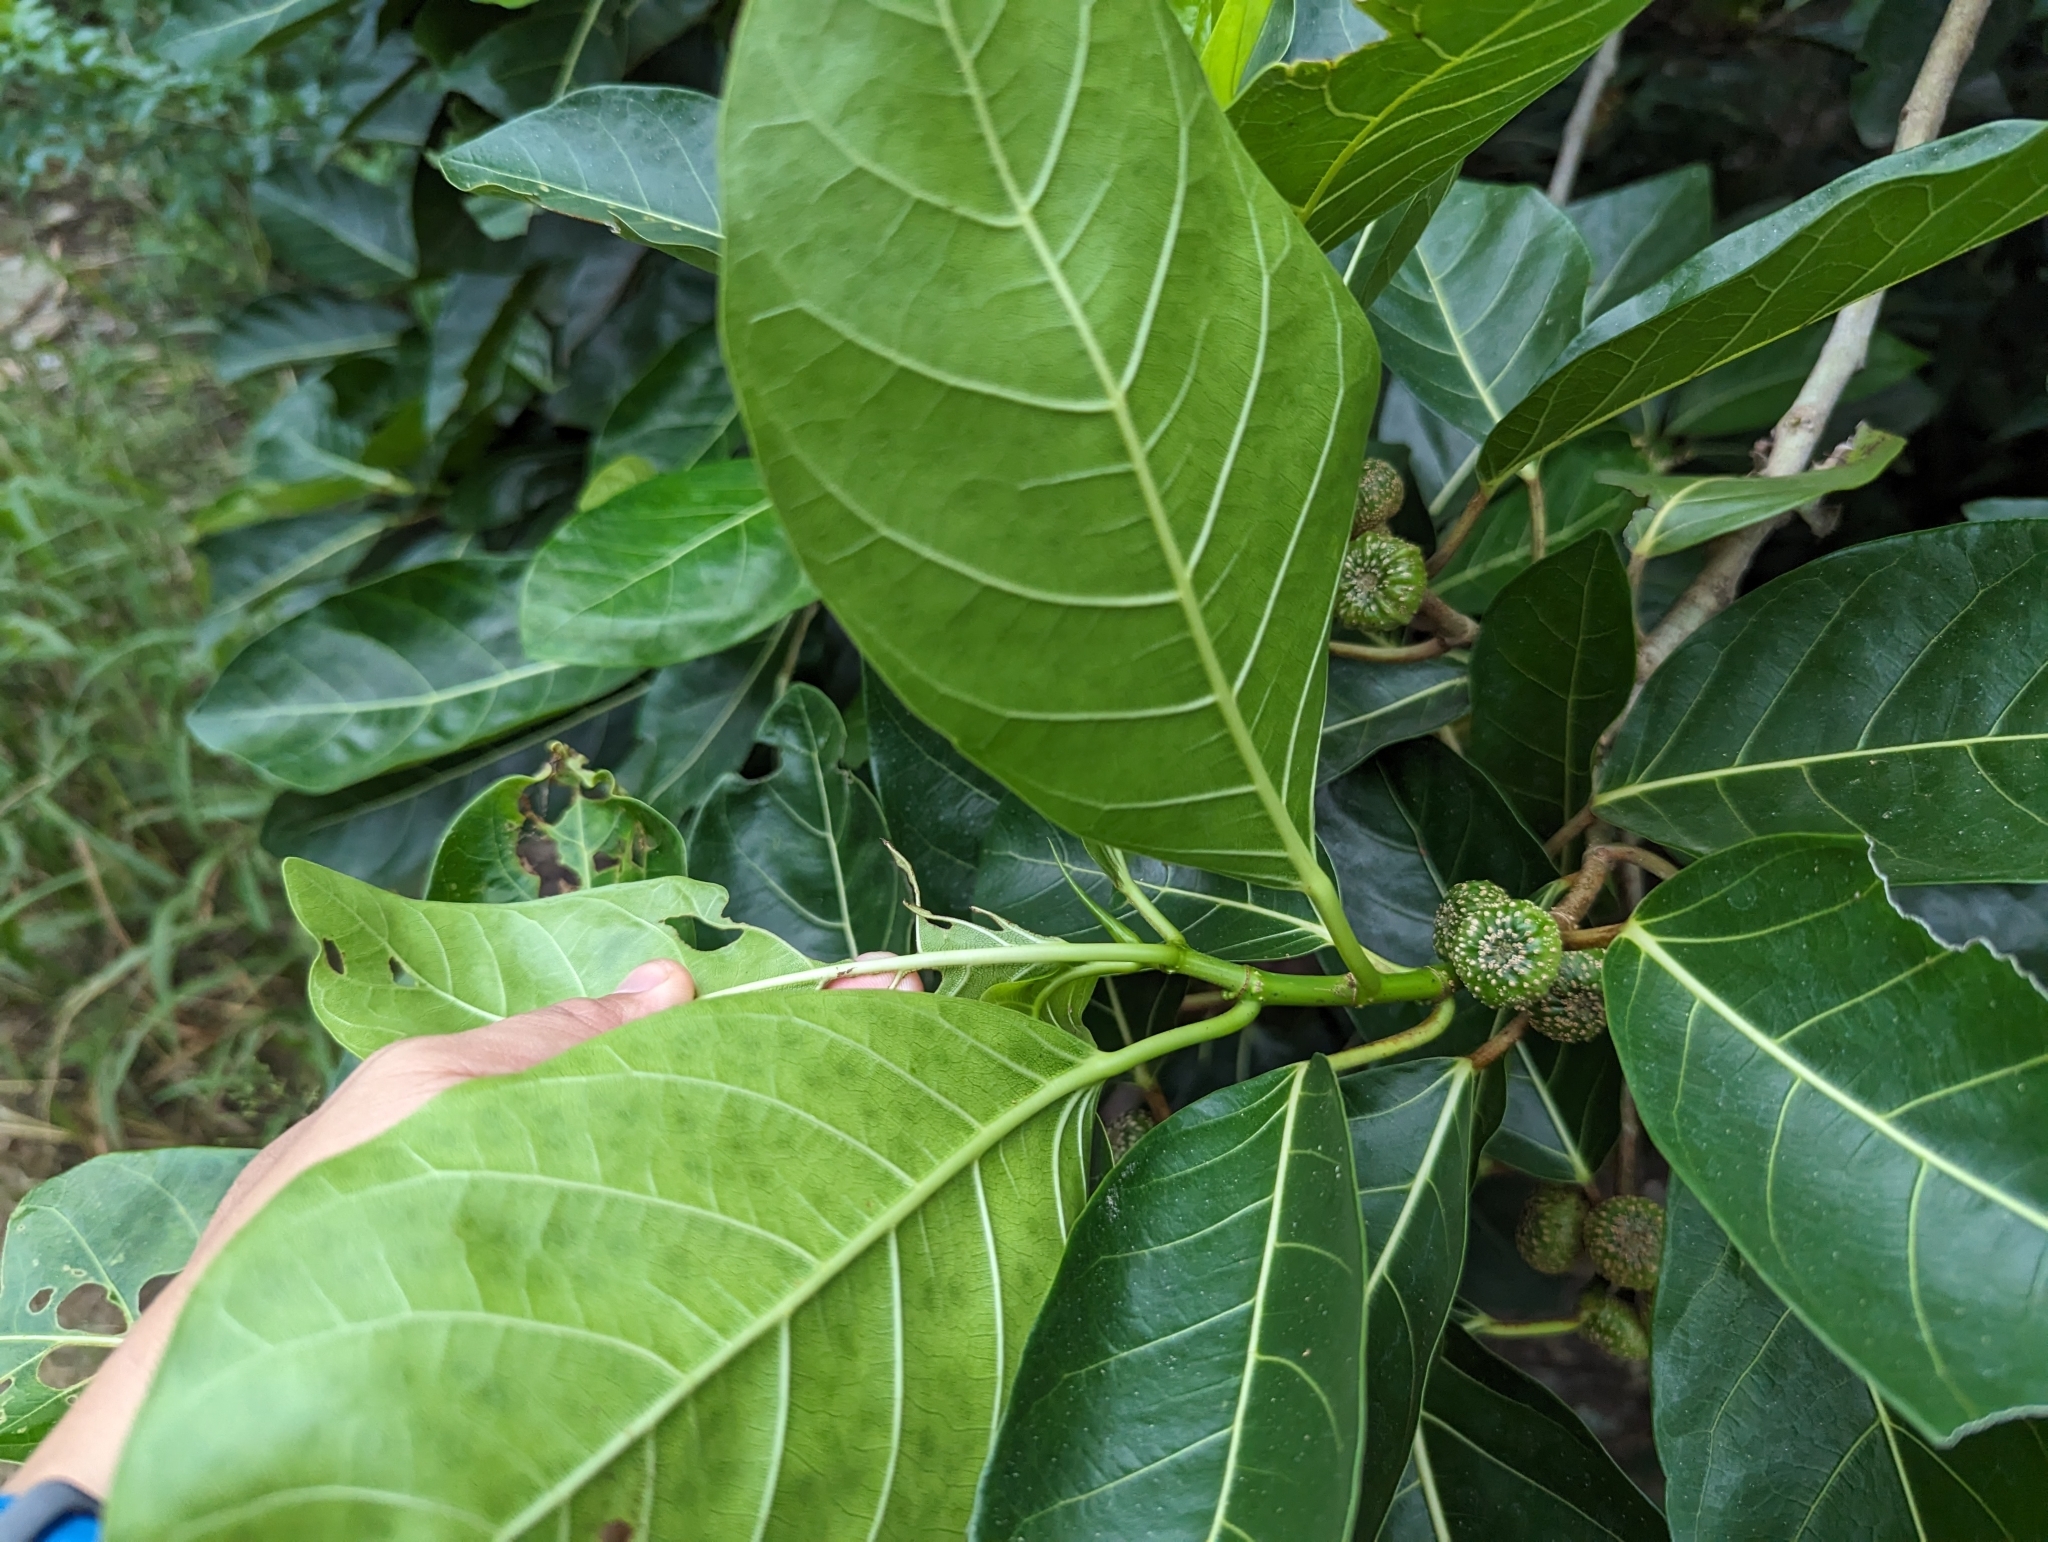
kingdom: Plantae
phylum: Tracheophyta
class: Magnoliopsida
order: Rosales
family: Moraceae
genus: Ficus
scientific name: Ficus septica
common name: Septic fig
